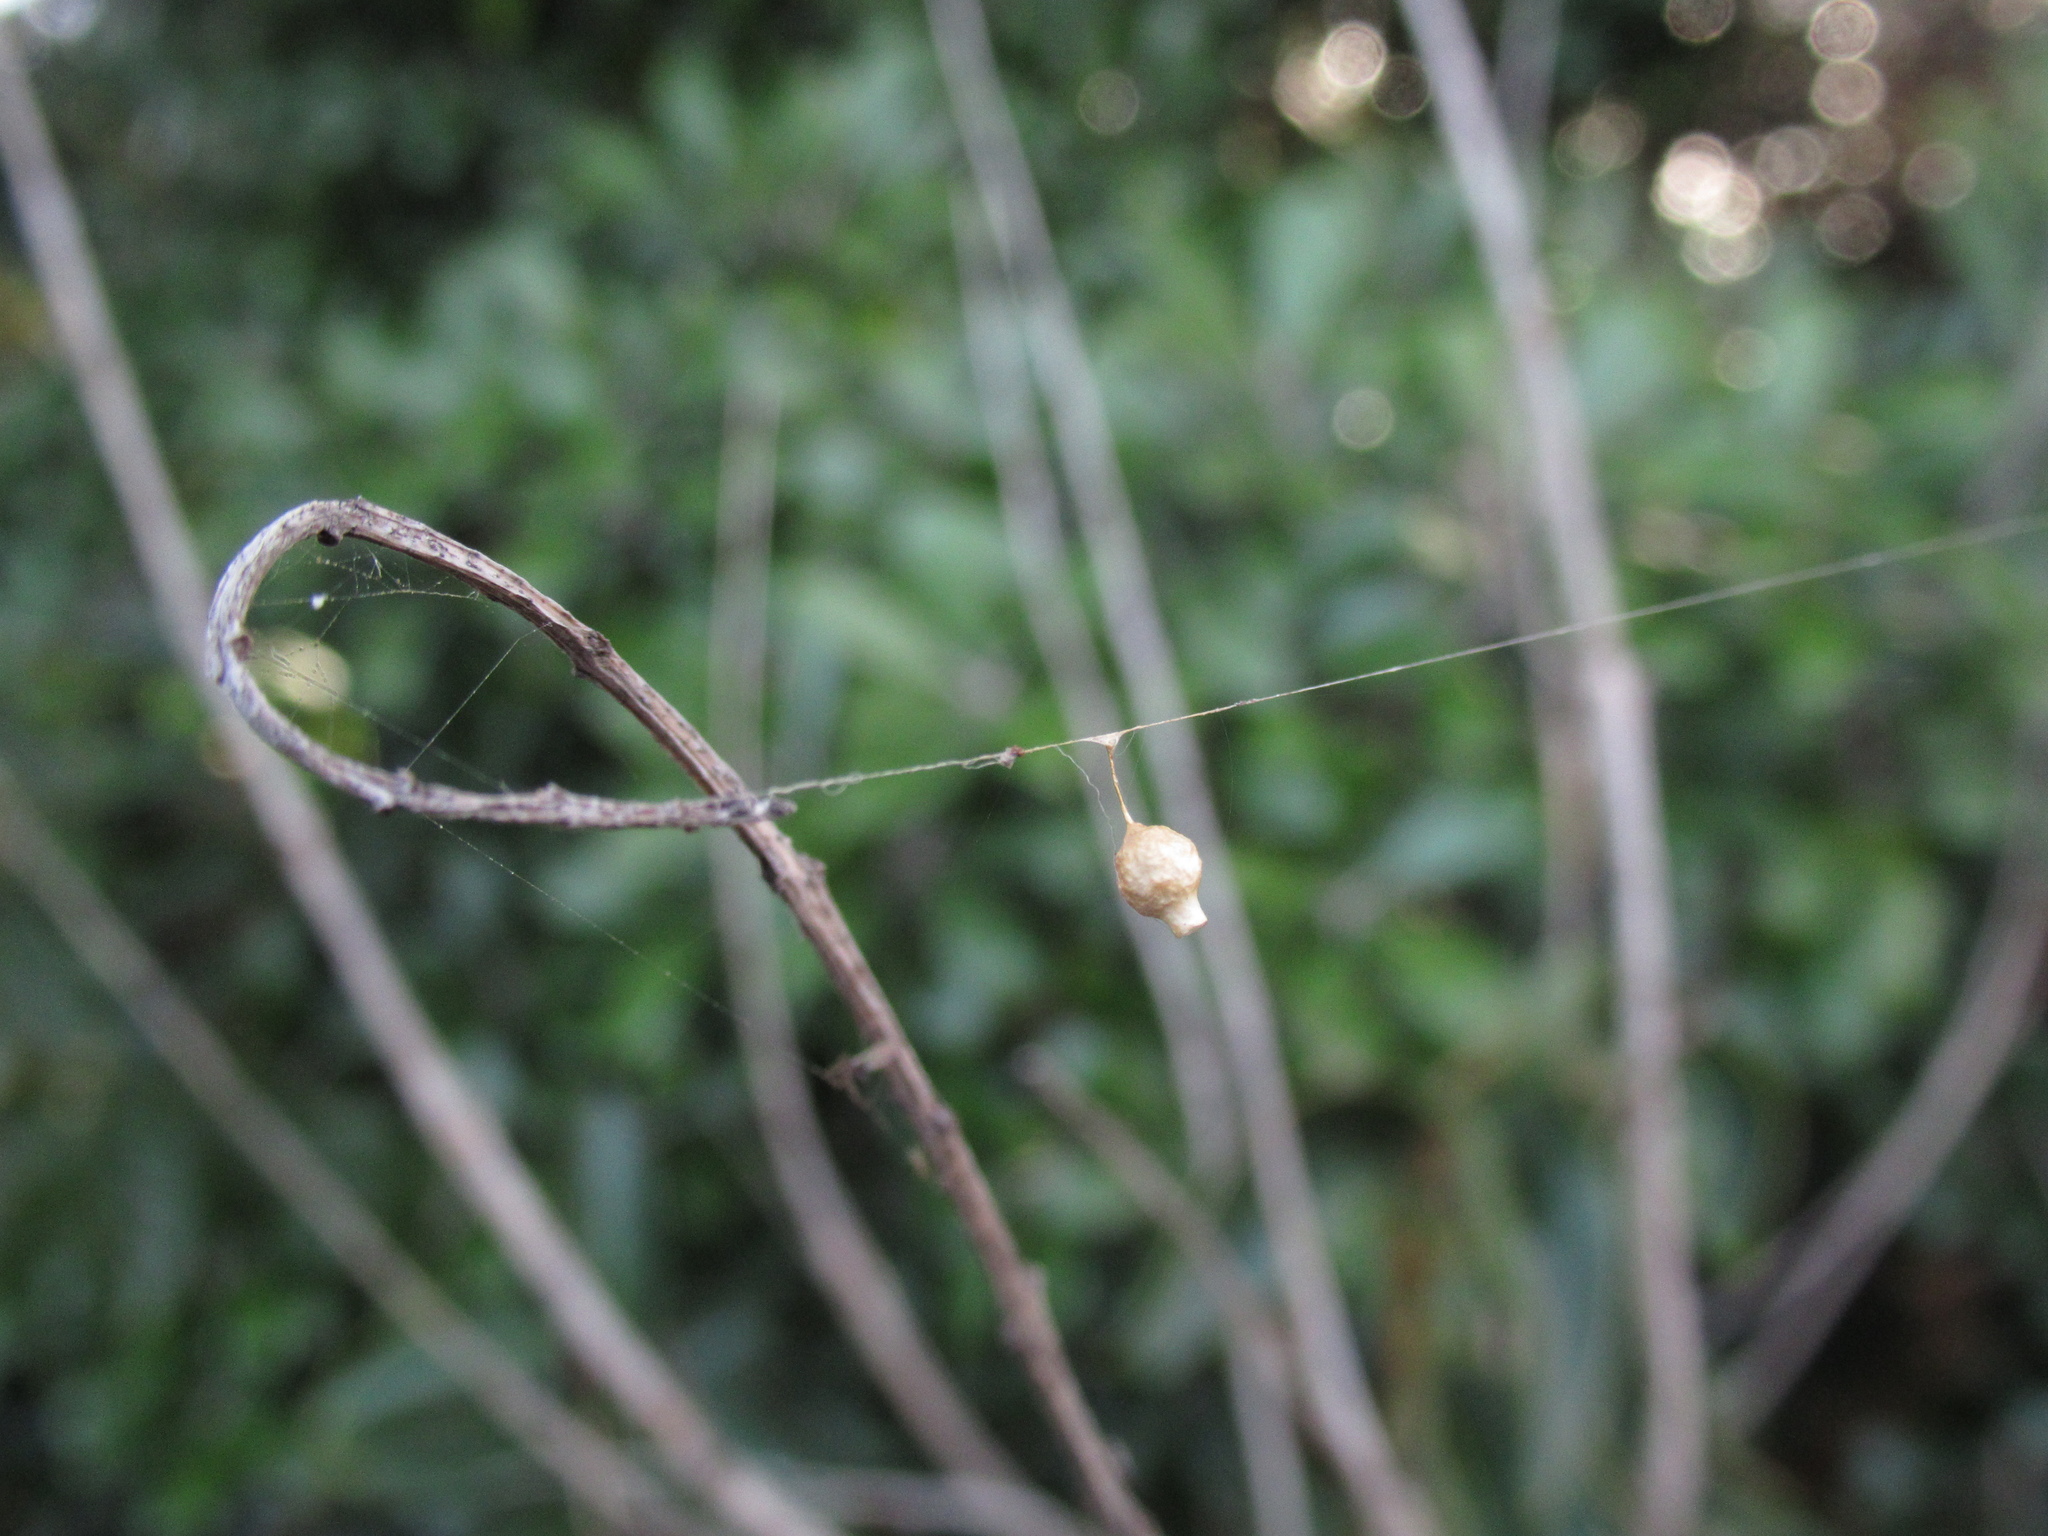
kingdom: Animalia
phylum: Arthropoda
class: Arachnida
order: Araneae
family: Theridiidae
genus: Argyrodes
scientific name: Argyrodes antipodianus
